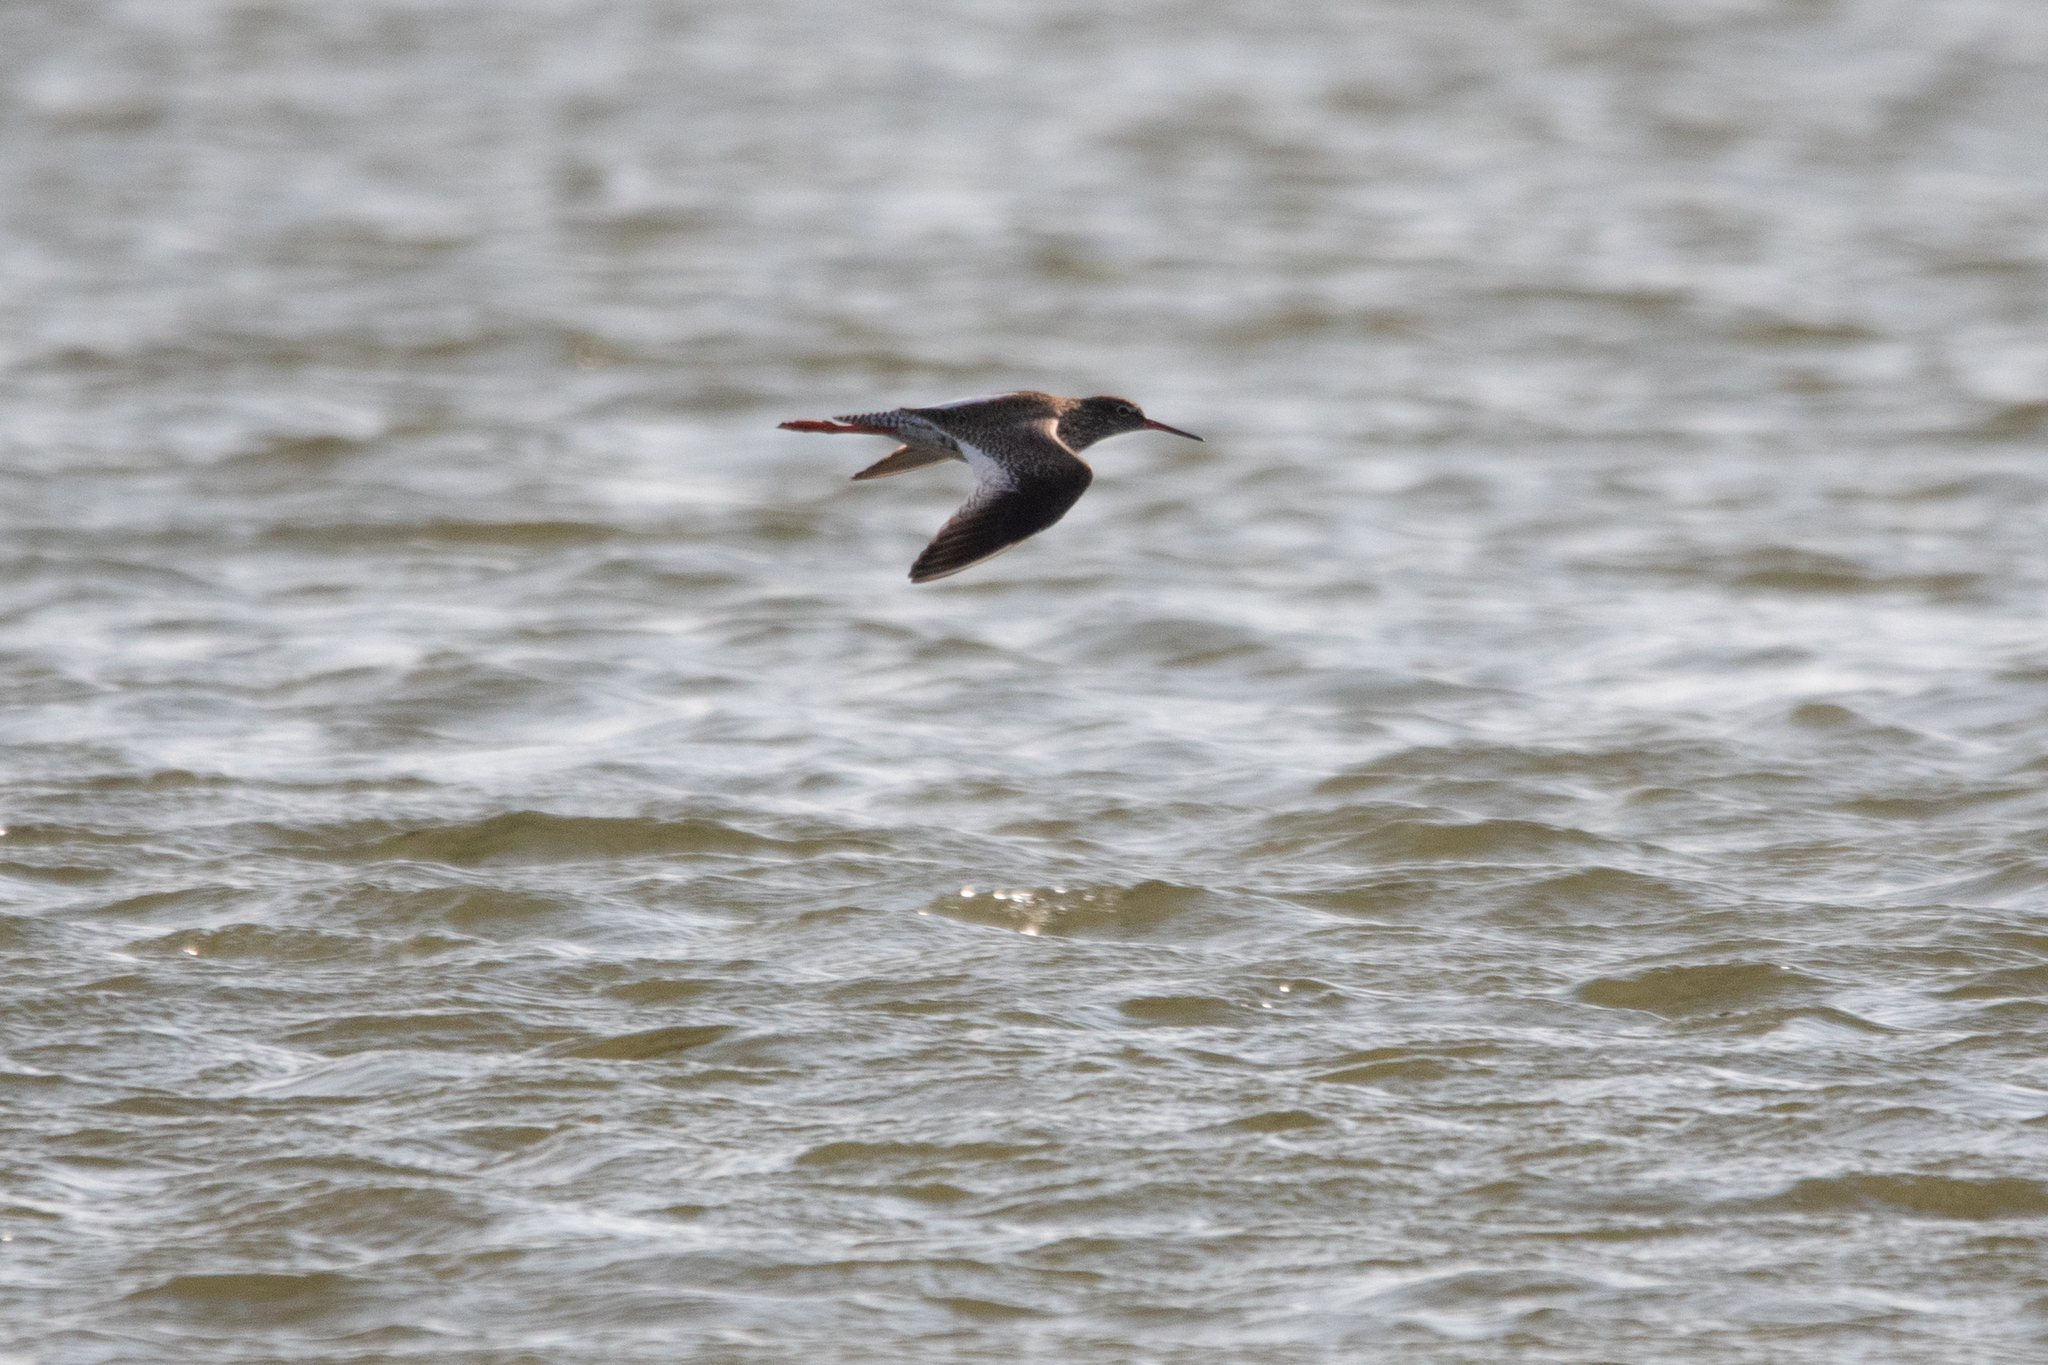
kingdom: Animalia
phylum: Chordata
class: Aves
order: Charadriiformes
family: Scolopacidae
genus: Tringa
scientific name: Tringa totanus
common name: Common redshank
